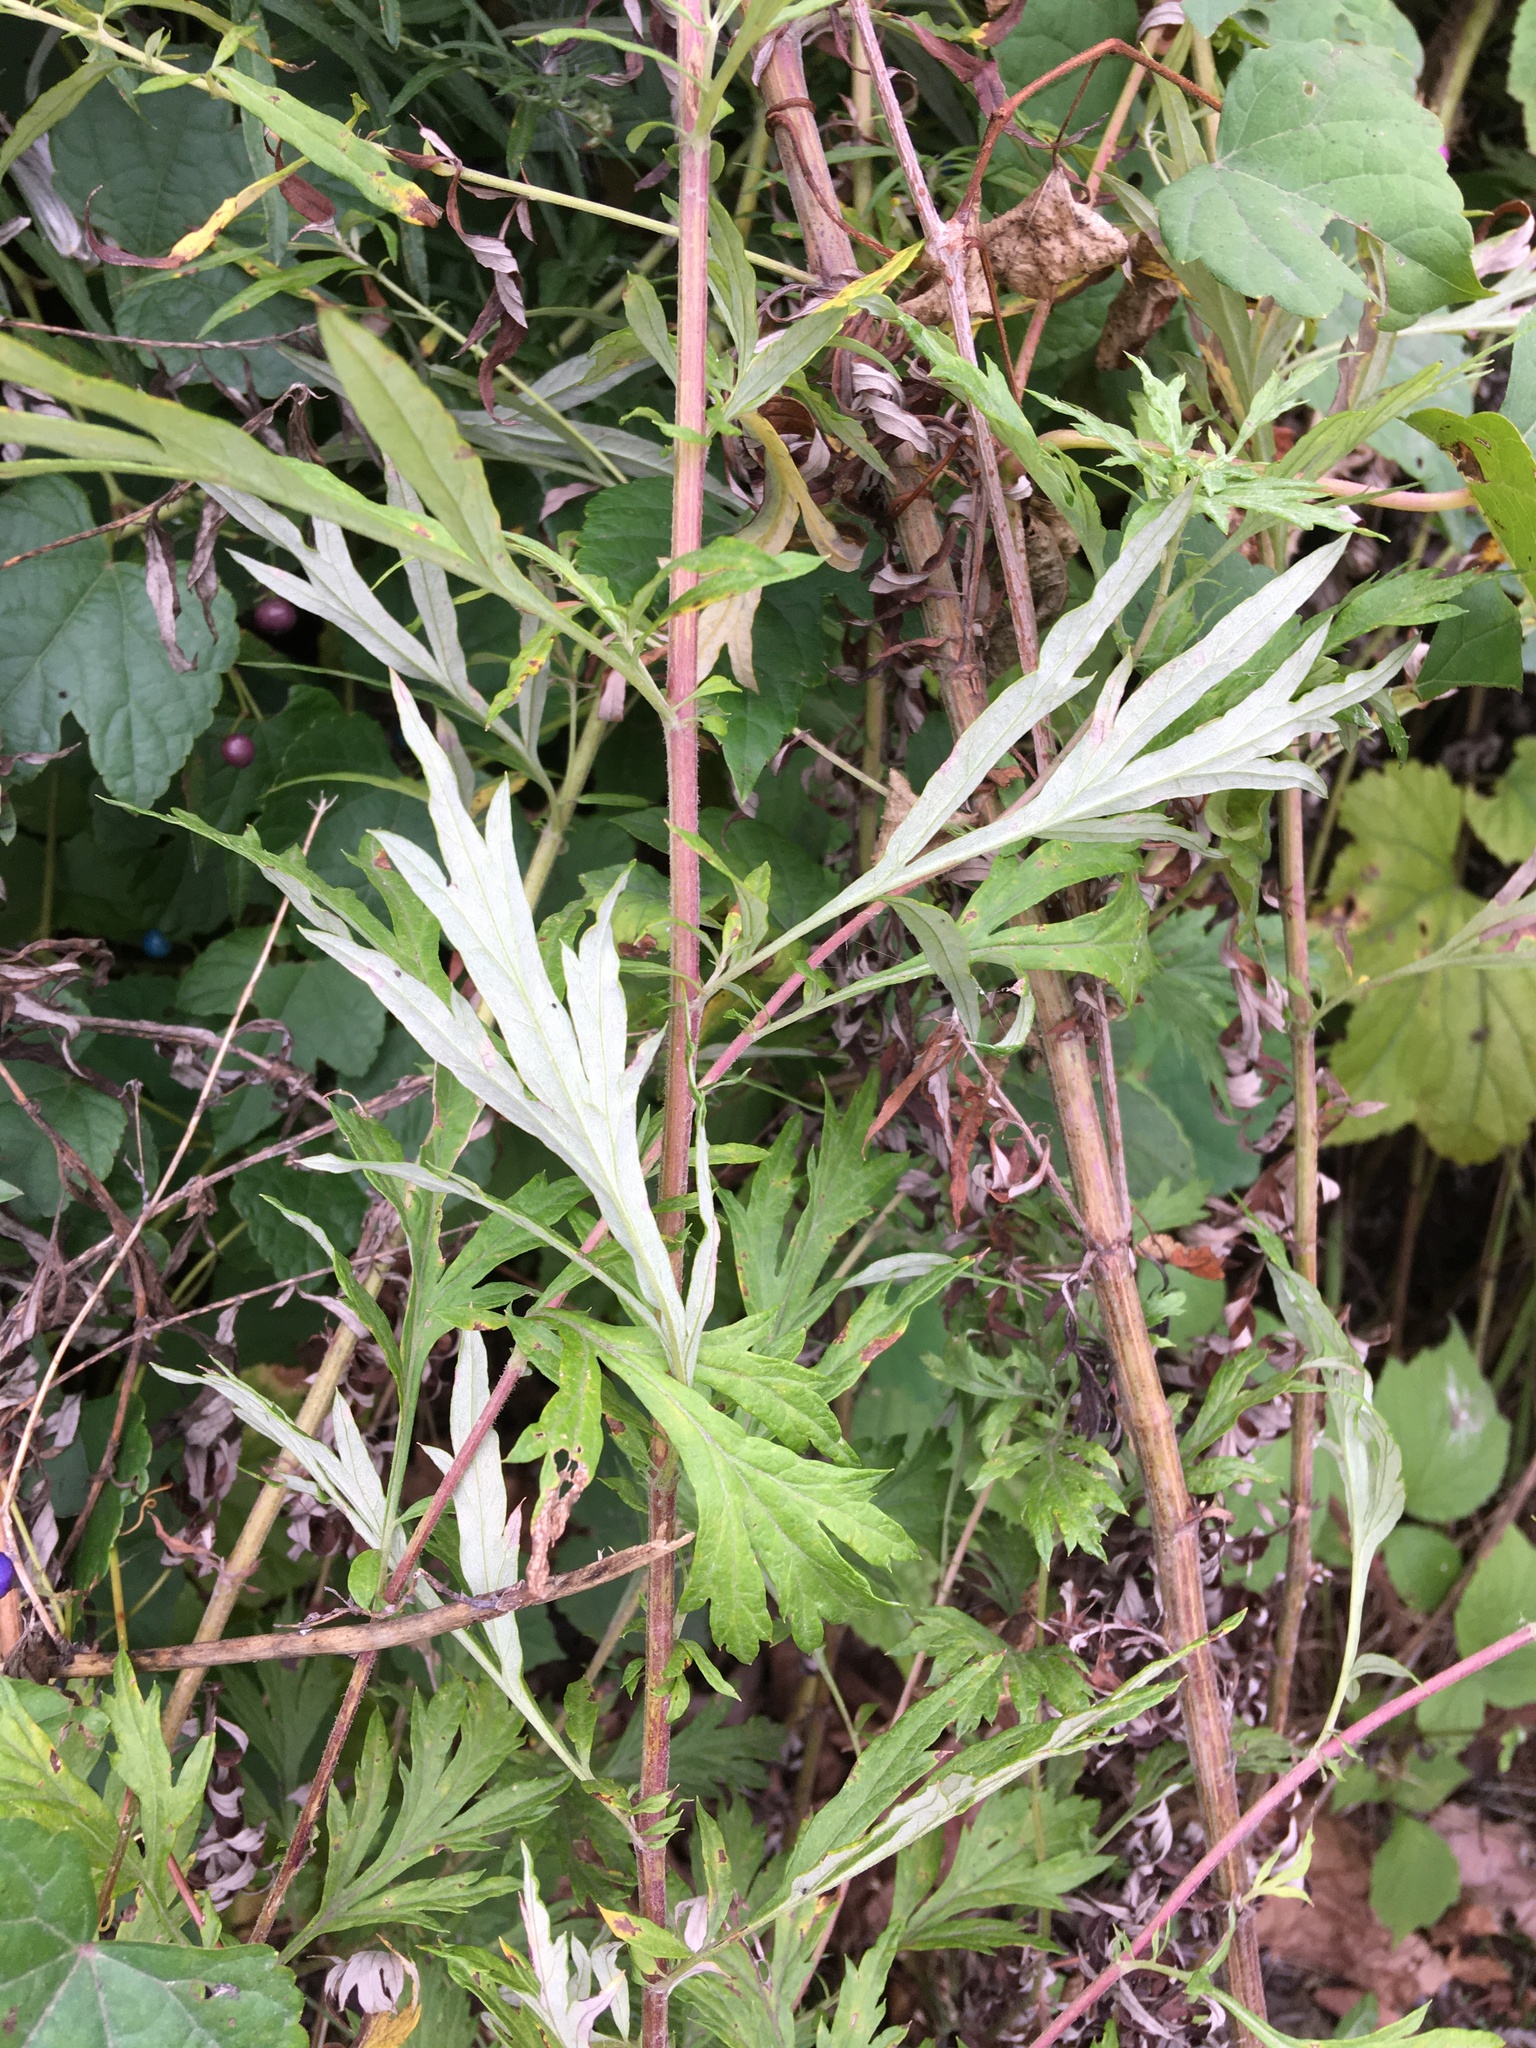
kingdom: Plantae
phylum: Tracheophyta
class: Magnoliopsida
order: Asterales
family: Asteraceae
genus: Artemisia
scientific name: Artemisia vulgaris
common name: Mugwort
